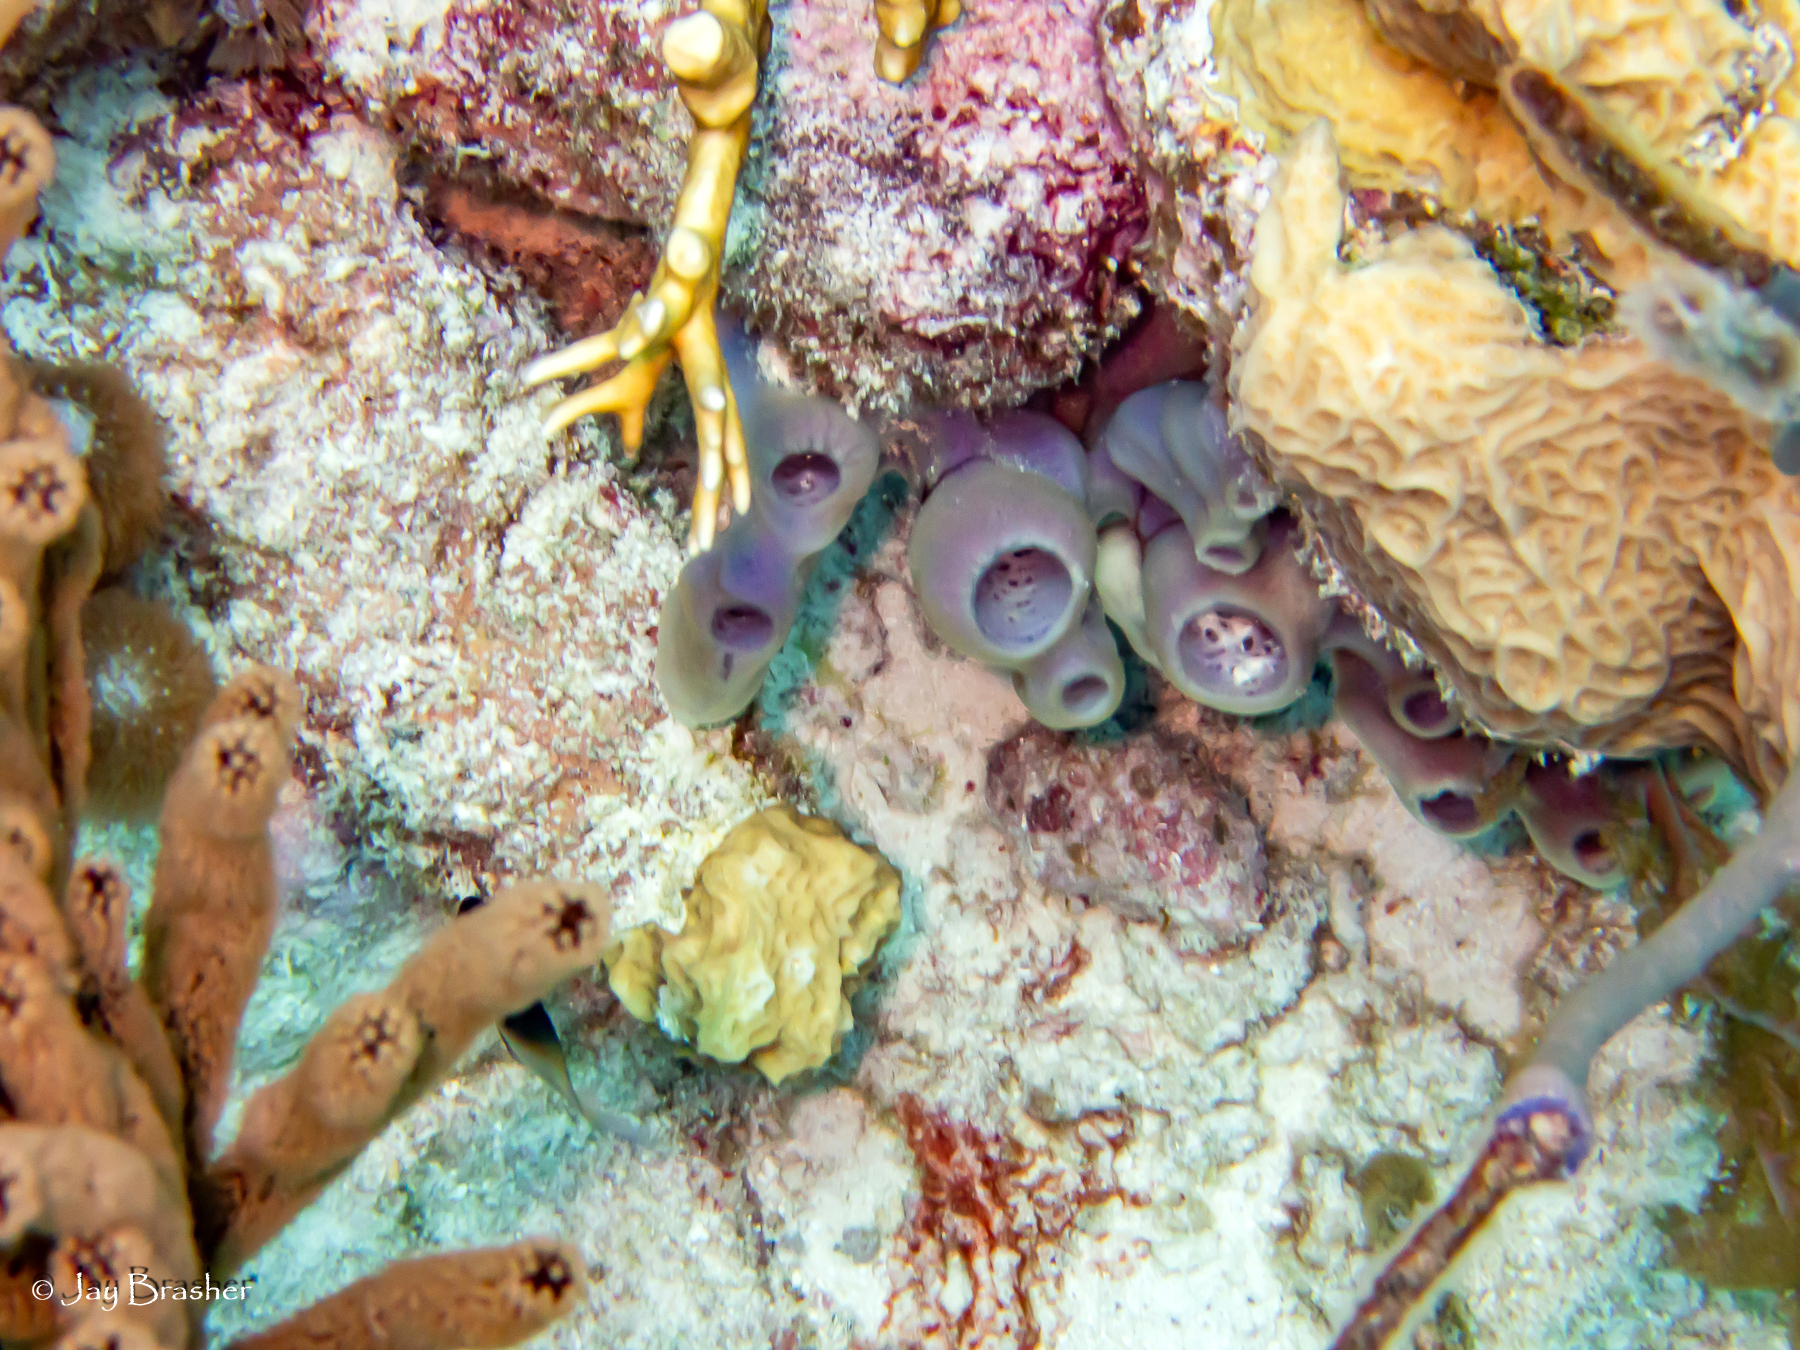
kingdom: Animalia
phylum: Porifera
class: Demospongiae
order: Haplosclerida
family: Callyspongiidae
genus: Callyspongia
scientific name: Callyspongia fallax
